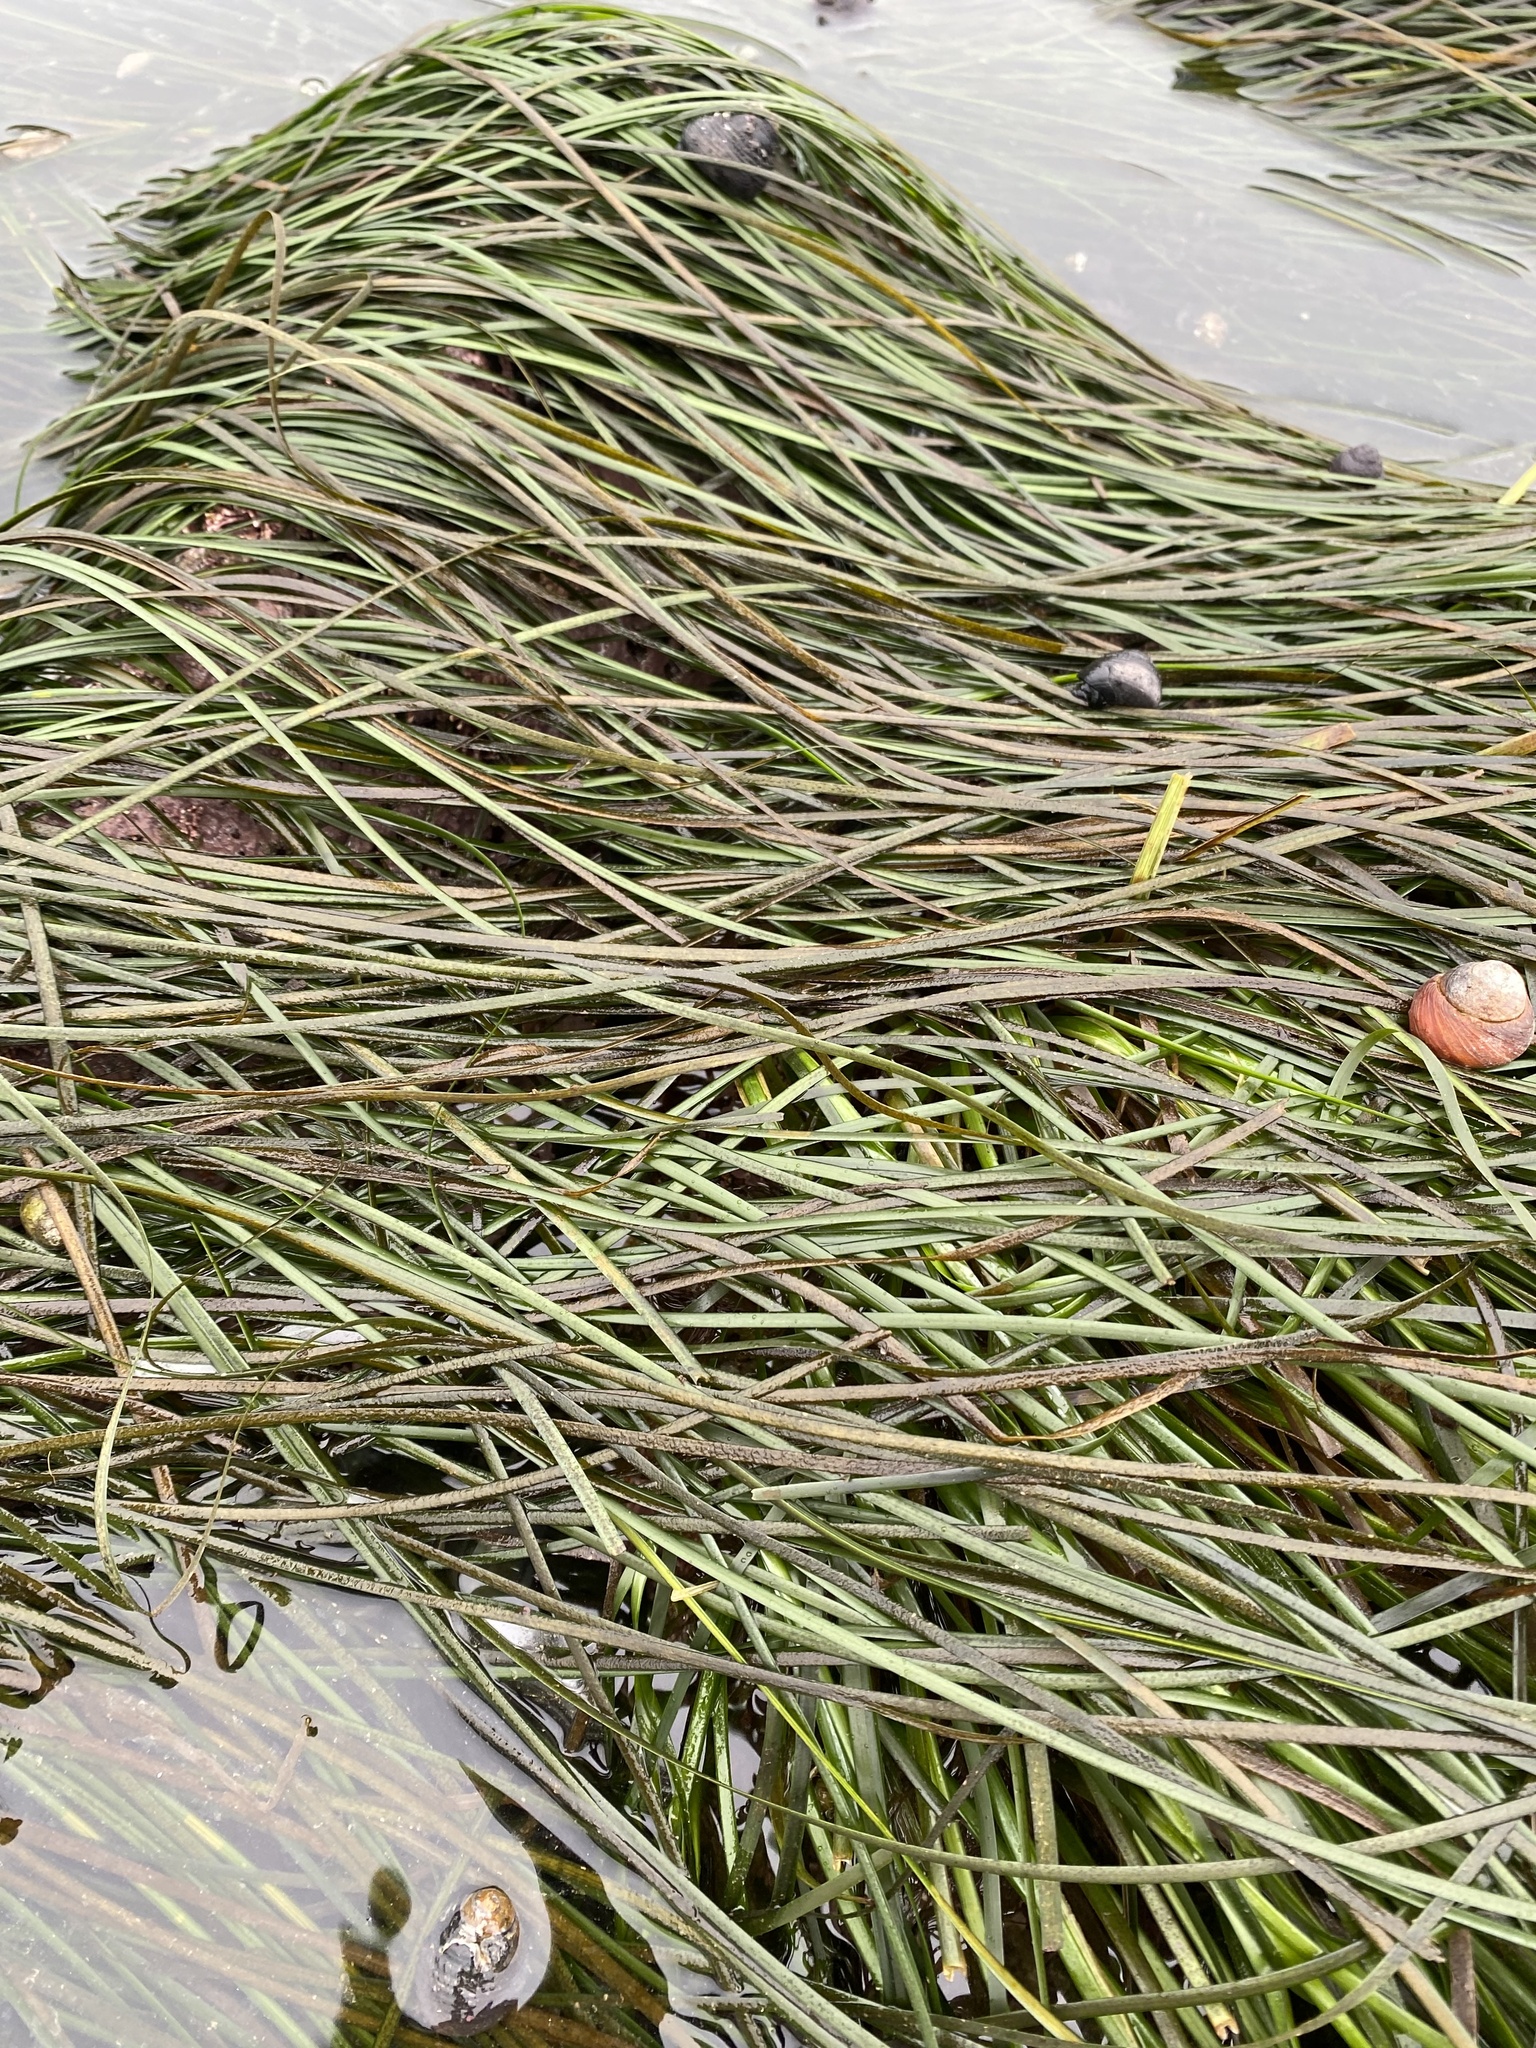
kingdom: Plantae
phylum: Tracheophyta
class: Liliopsida
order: Alismatales
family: Zosteraceae
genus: Phyllospadix
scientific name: Phyllospadix scouleri
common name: Species code: ps
